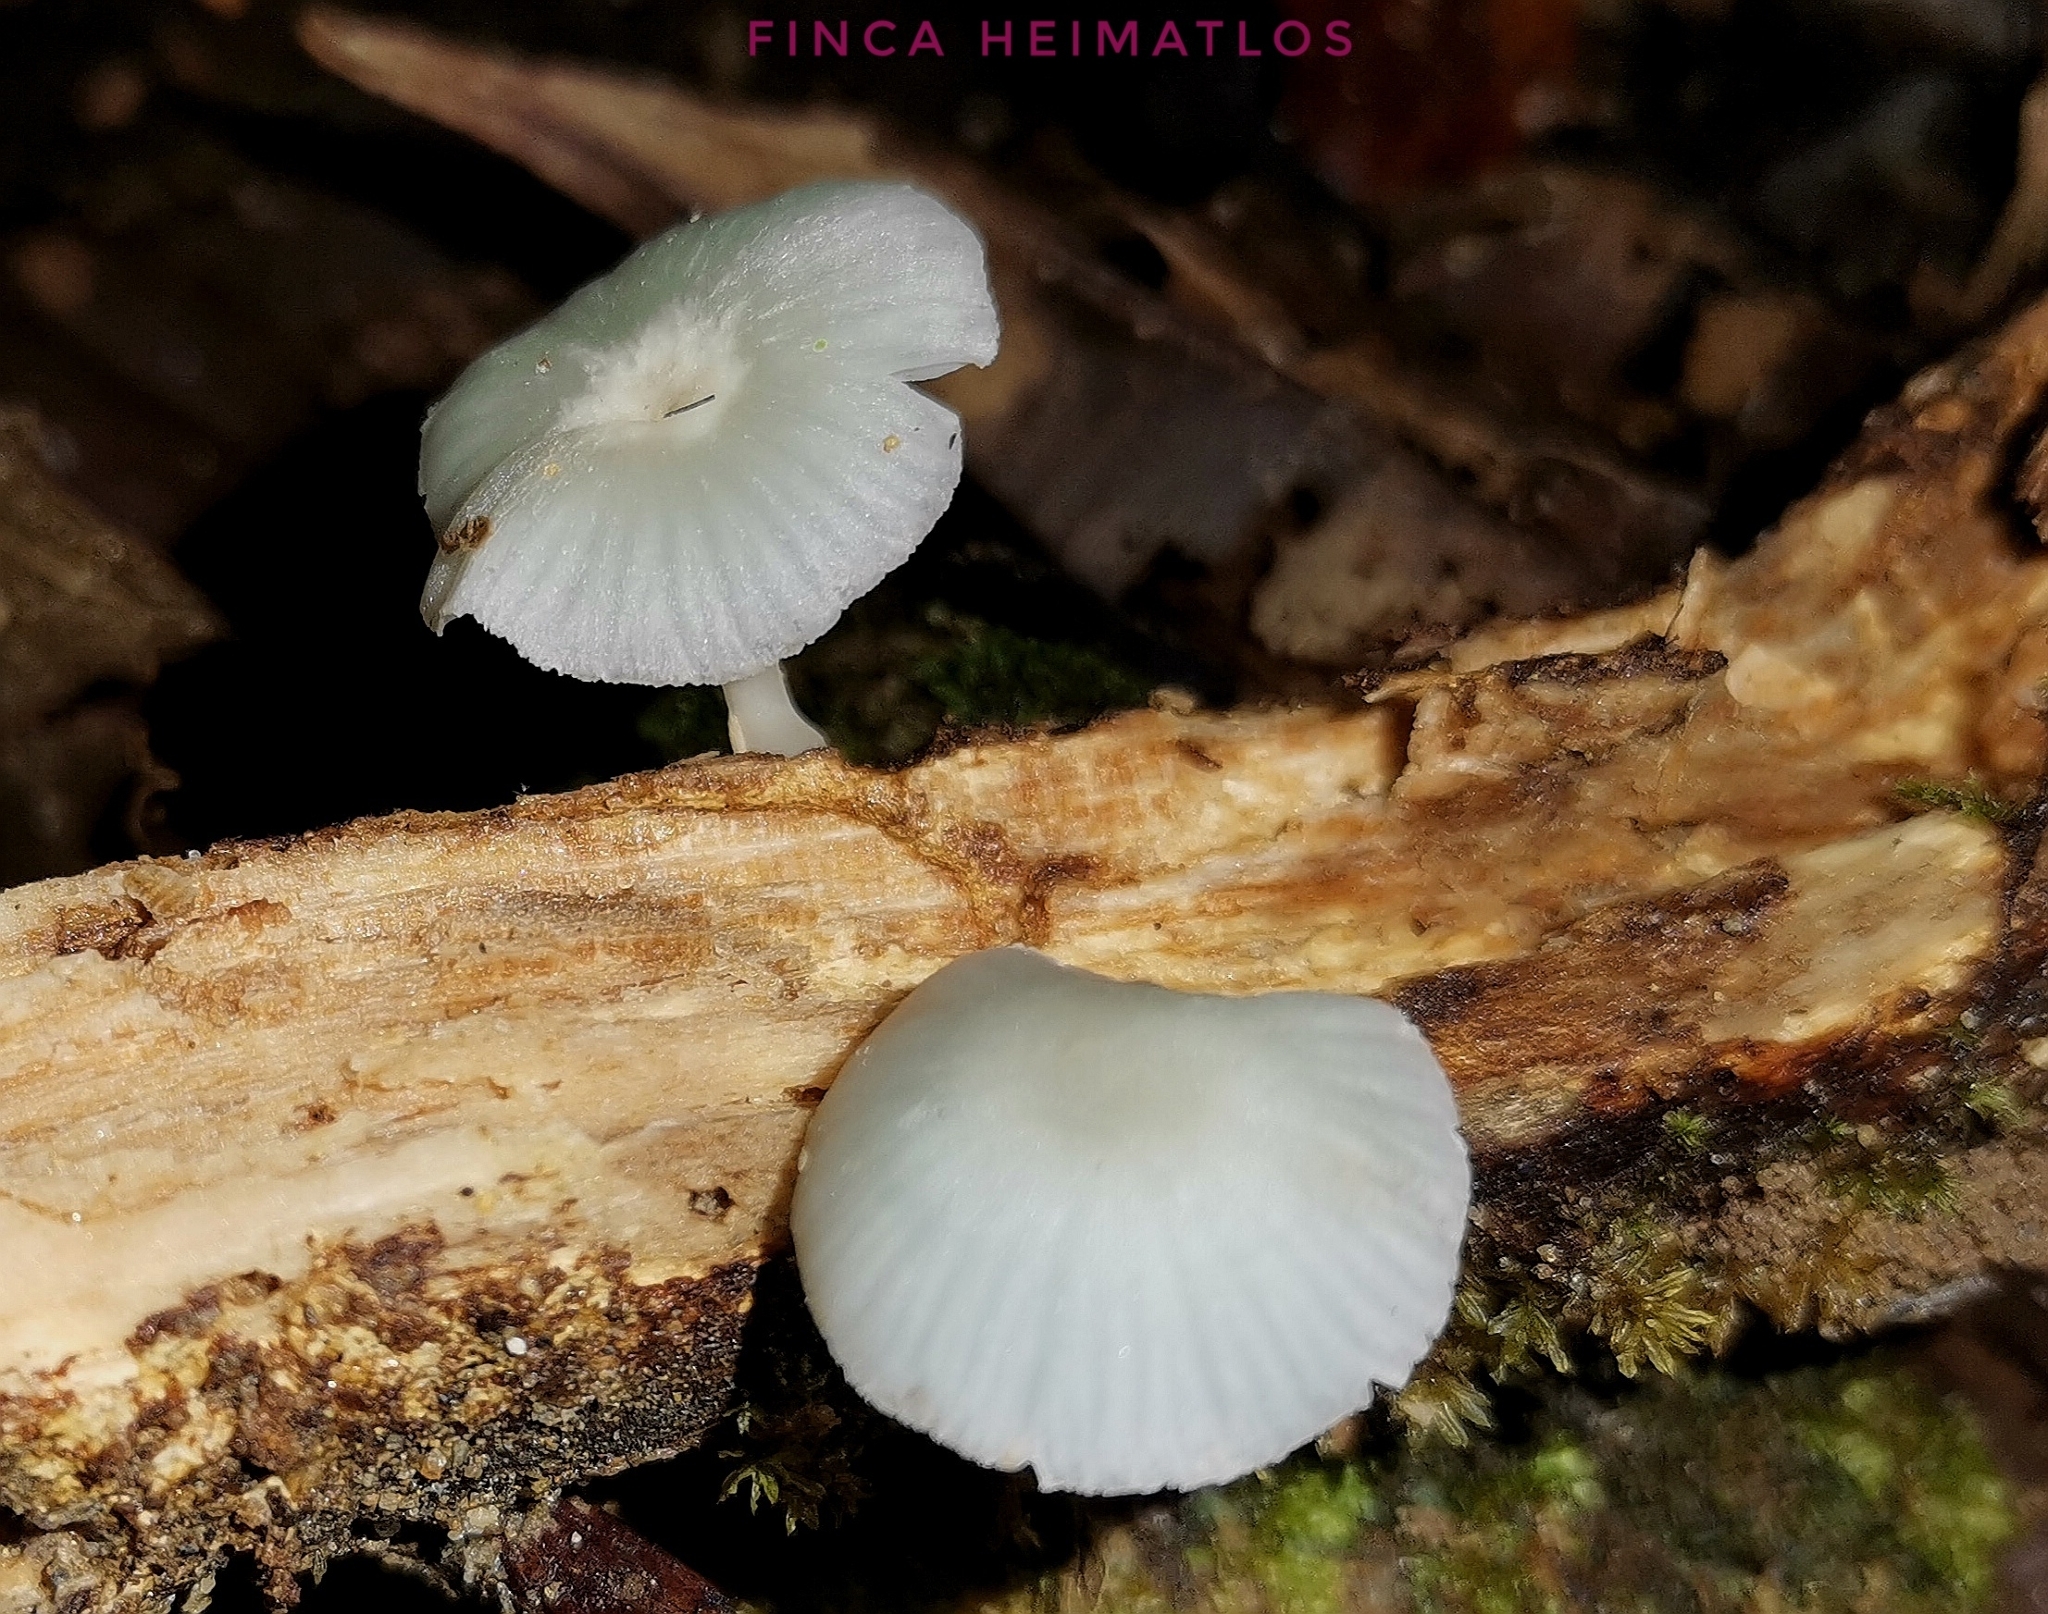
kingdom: Fungi
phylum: Basidiomycota
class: Agaricomycetes
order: Agaricales
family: Marasmiaceae
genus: Clitocybula
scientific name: Clitocybula azurea
